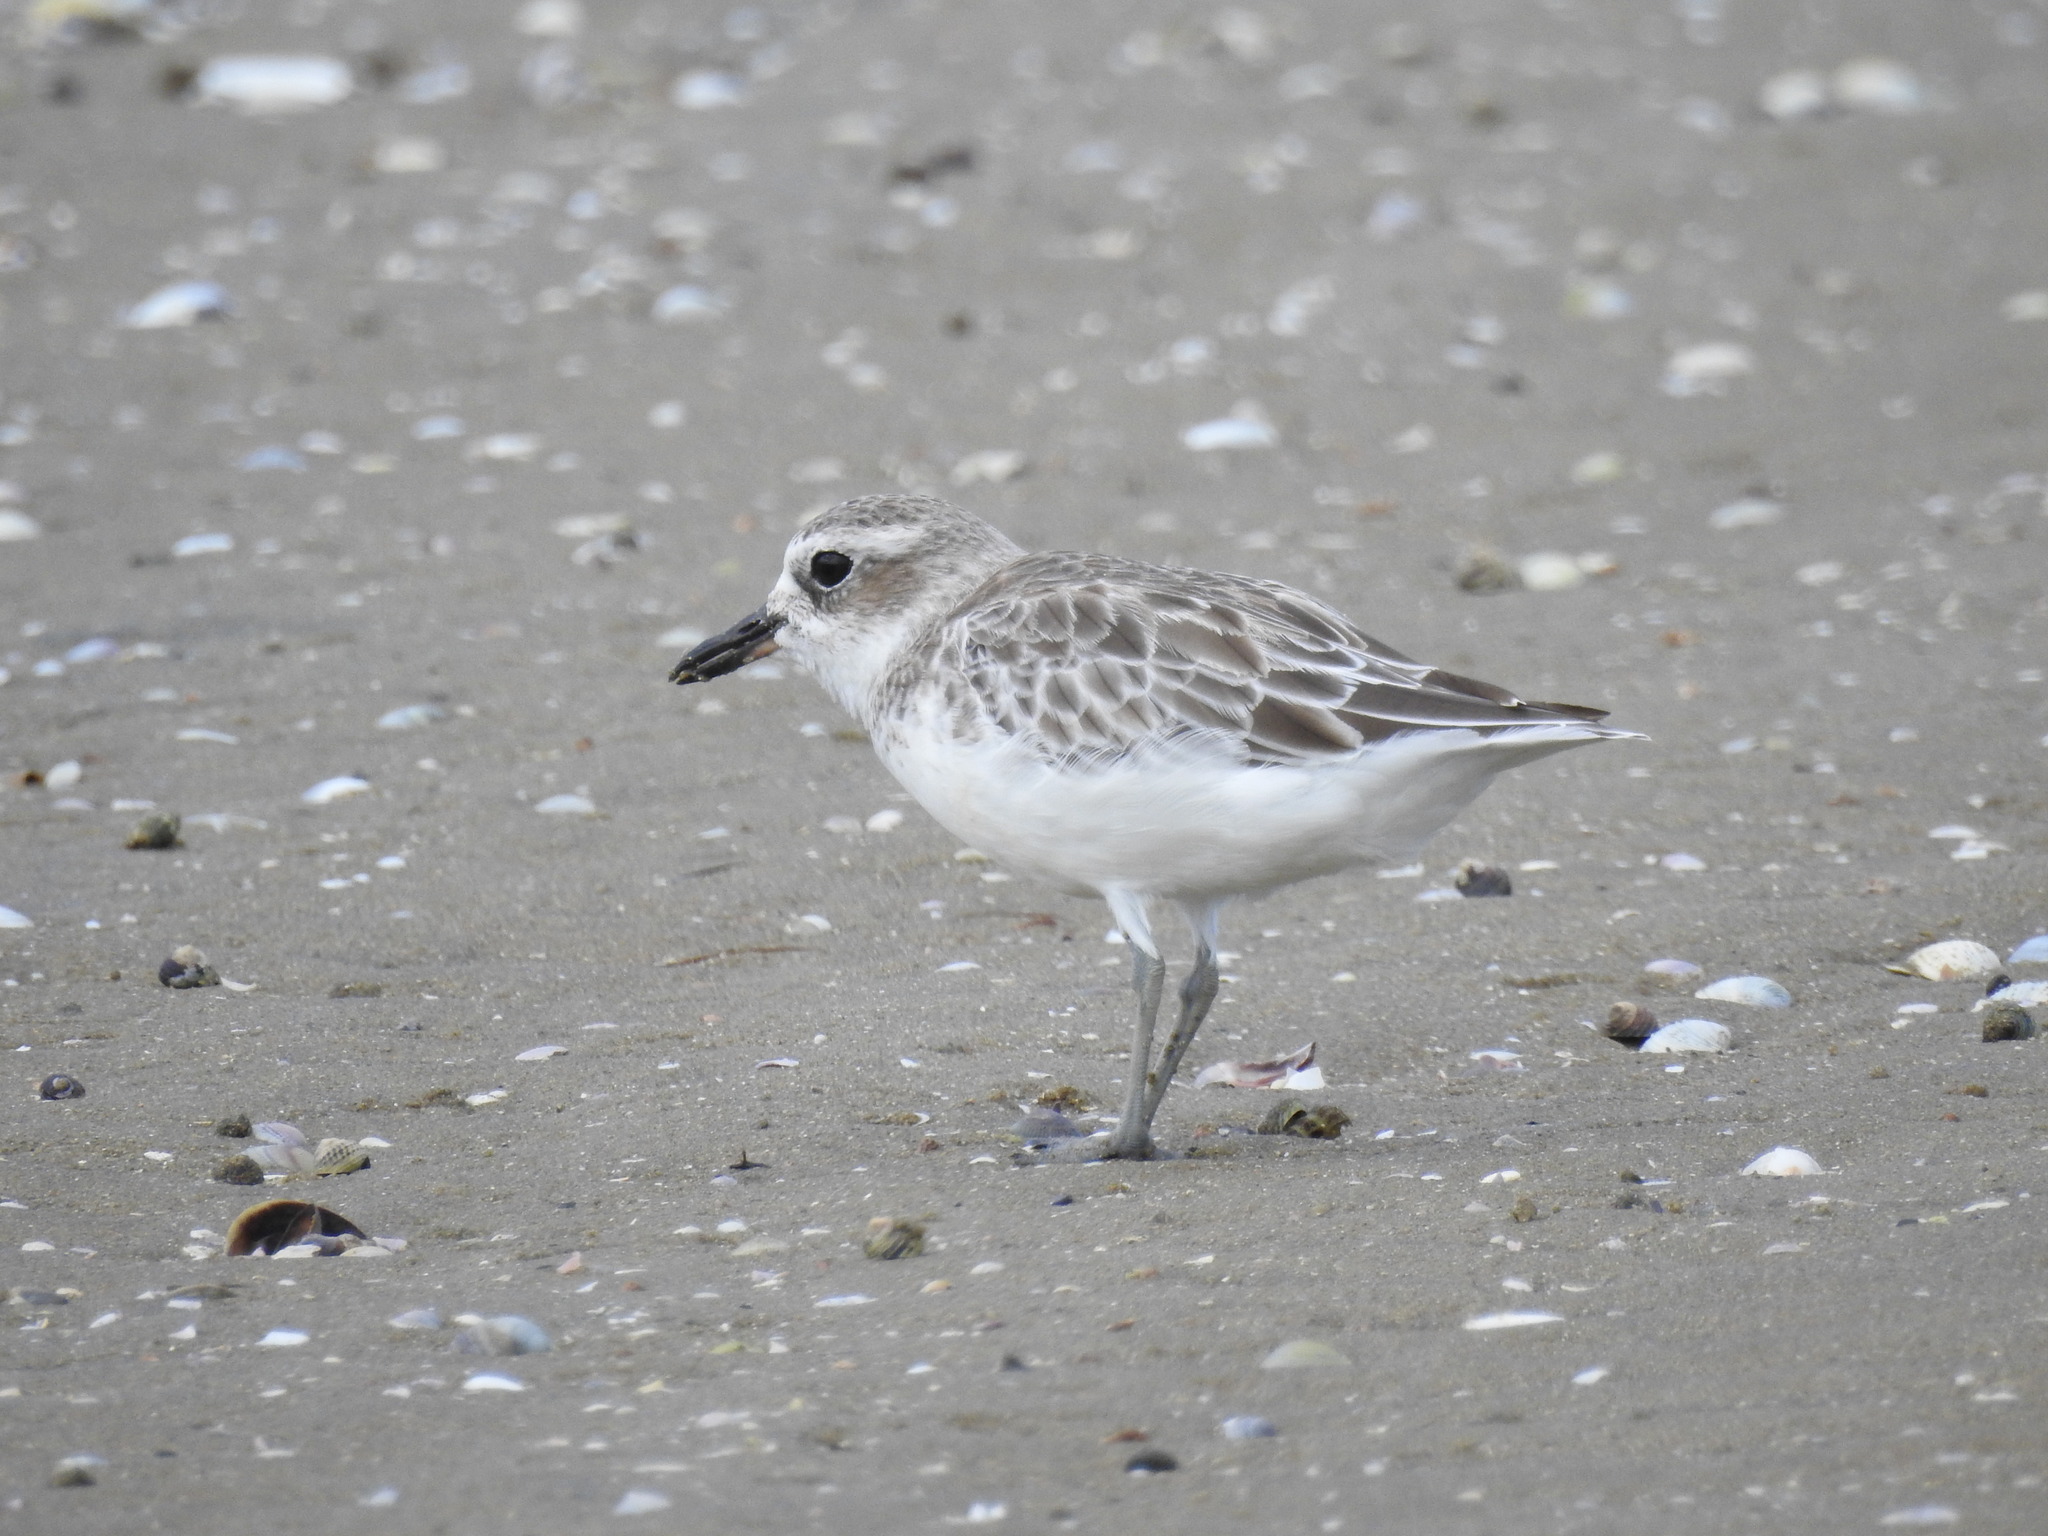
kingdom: Animalia
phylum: Chordata
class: Aves
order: Charadriiformes
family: Charadriidae
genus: Anarhynchus
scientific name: Anarhynchus
